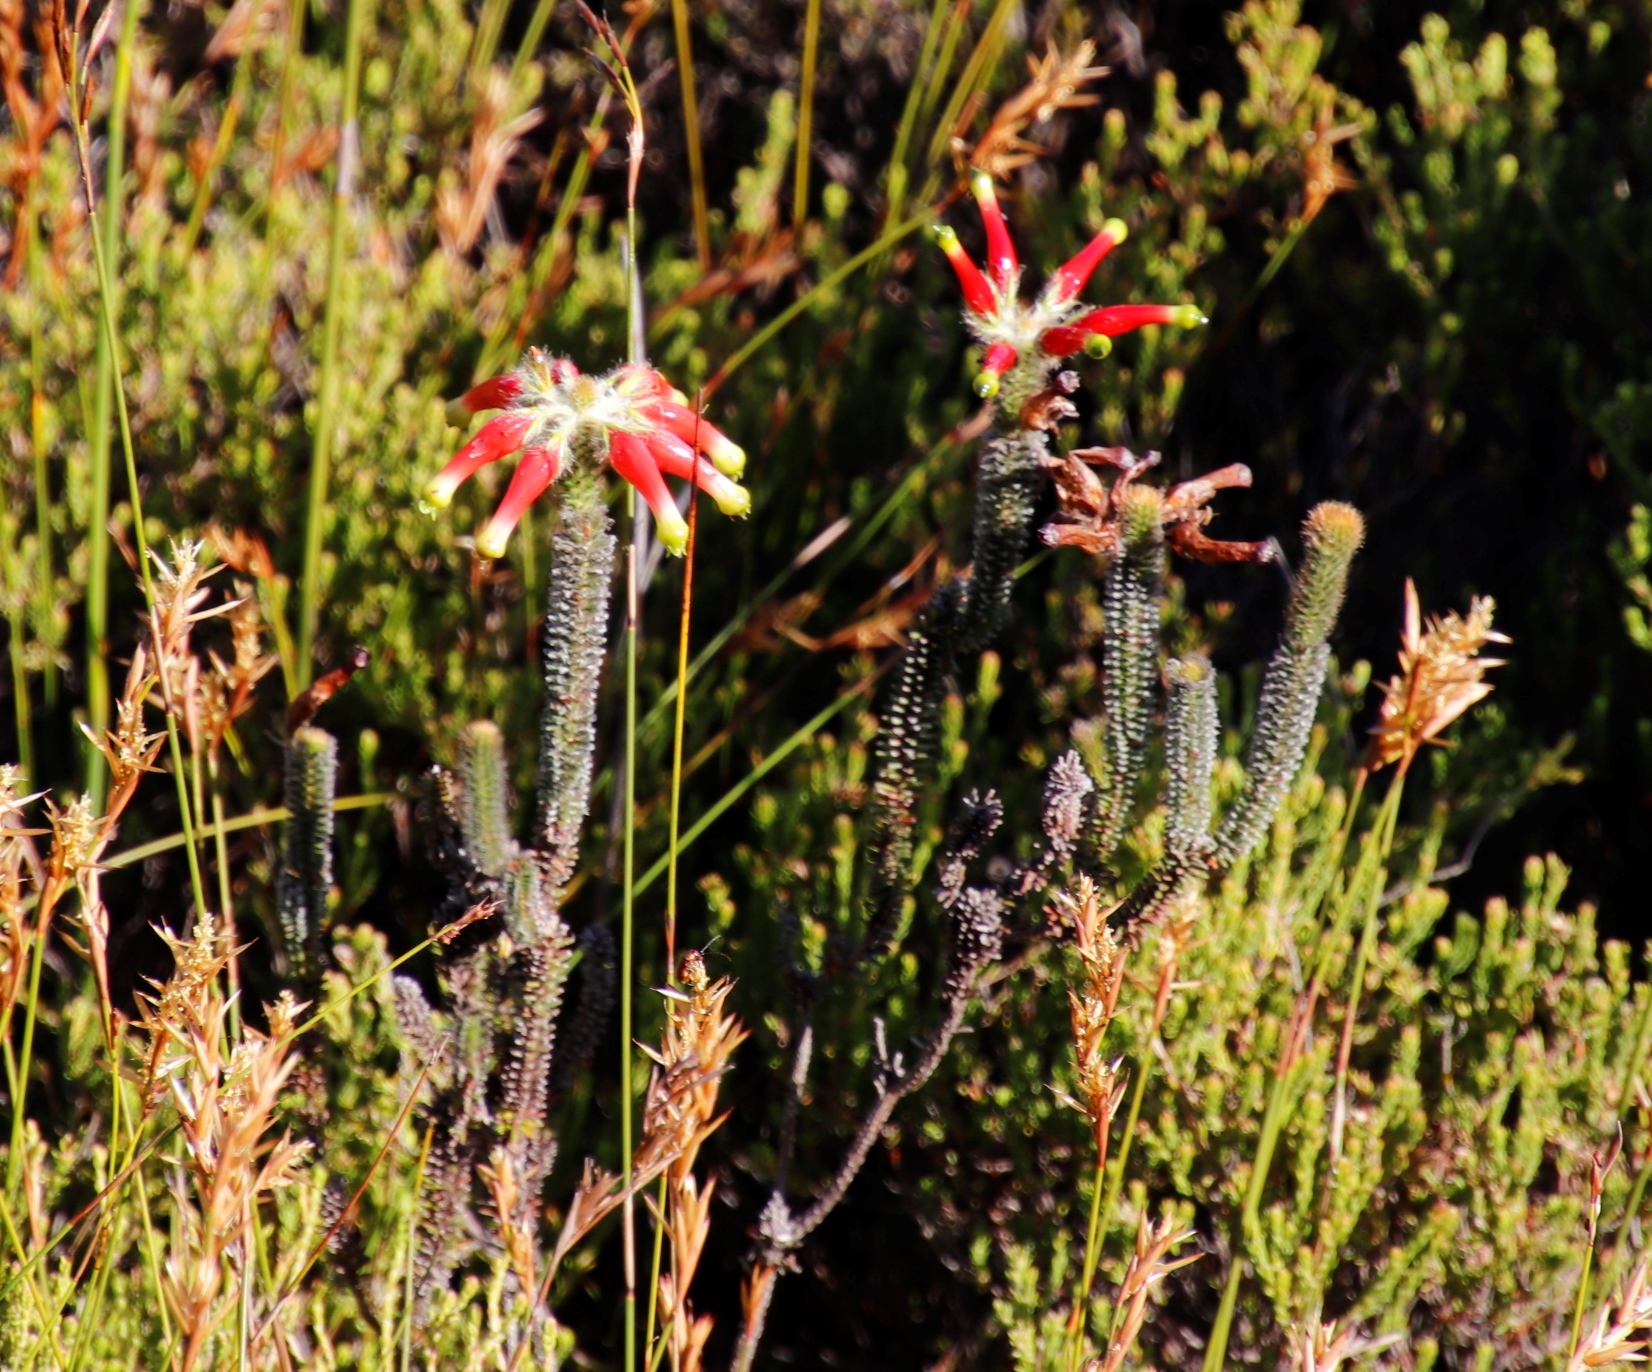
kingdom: Plantae
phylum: Tracheophyta
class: Magnoliopsida
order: Ericales
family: Ericaceae
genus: Erica
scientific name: Erica massonii
